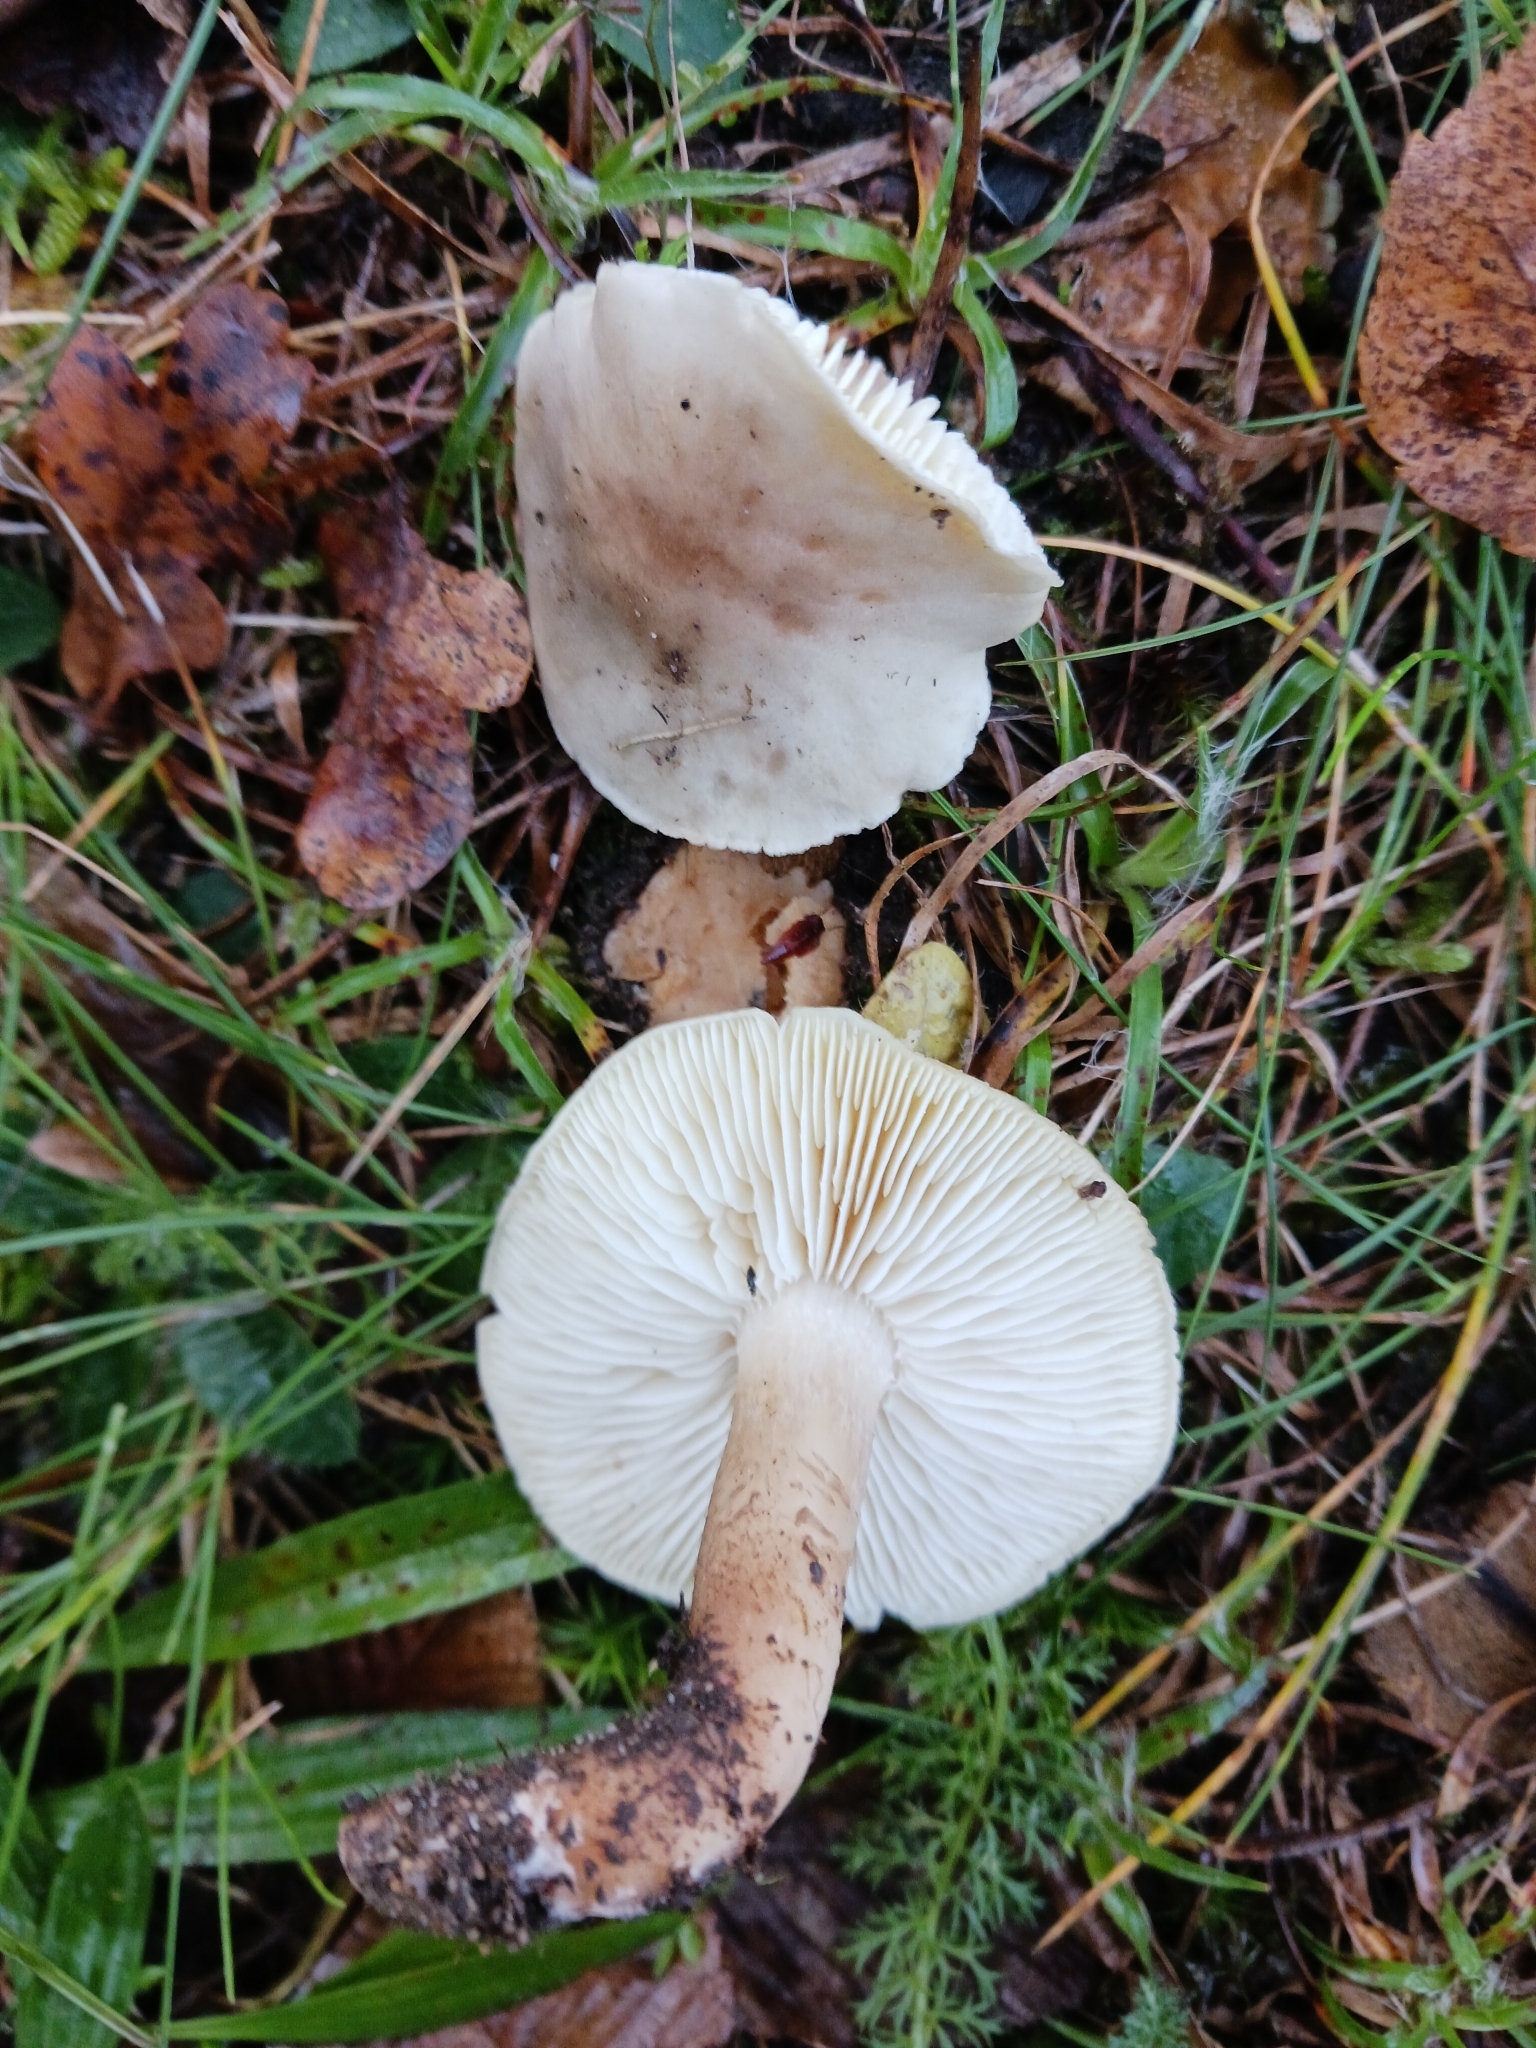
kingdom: Fungi
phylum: Basidiomycota
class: Agaricomycetes
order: Agaricales
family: Tricholomataceae
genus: Tricholoma
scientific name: Tricholoma saponaceum
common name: Soapy trich
